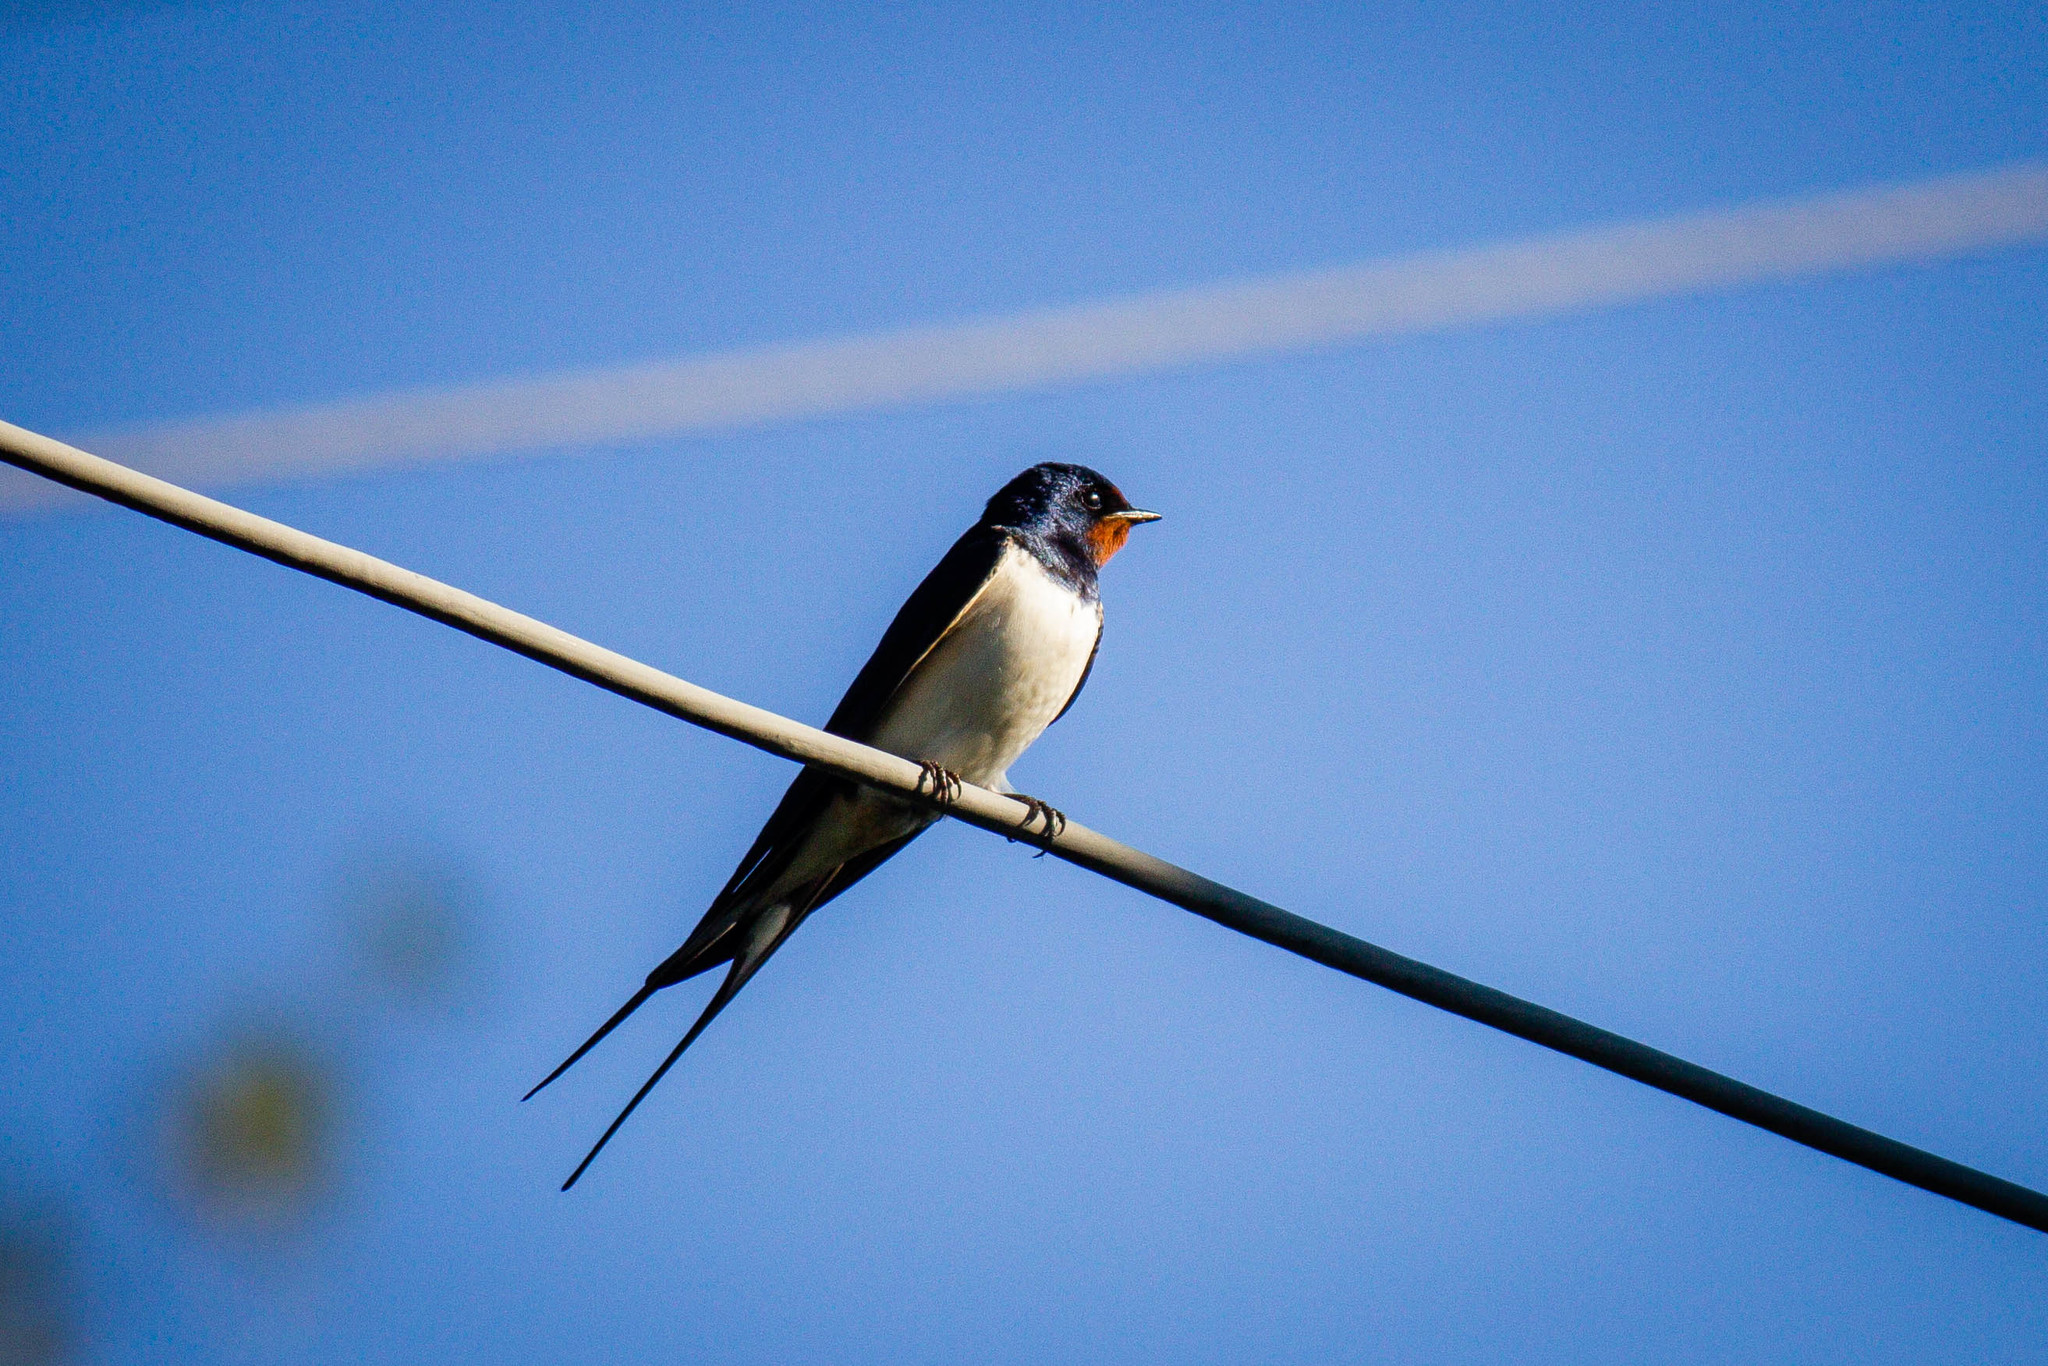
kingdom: Animalia
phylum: Chordata
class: Aves
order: Passeriformes
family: Hirundinidae
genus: Hirundo
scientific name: Hirundo rustica
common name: Barn swallow
